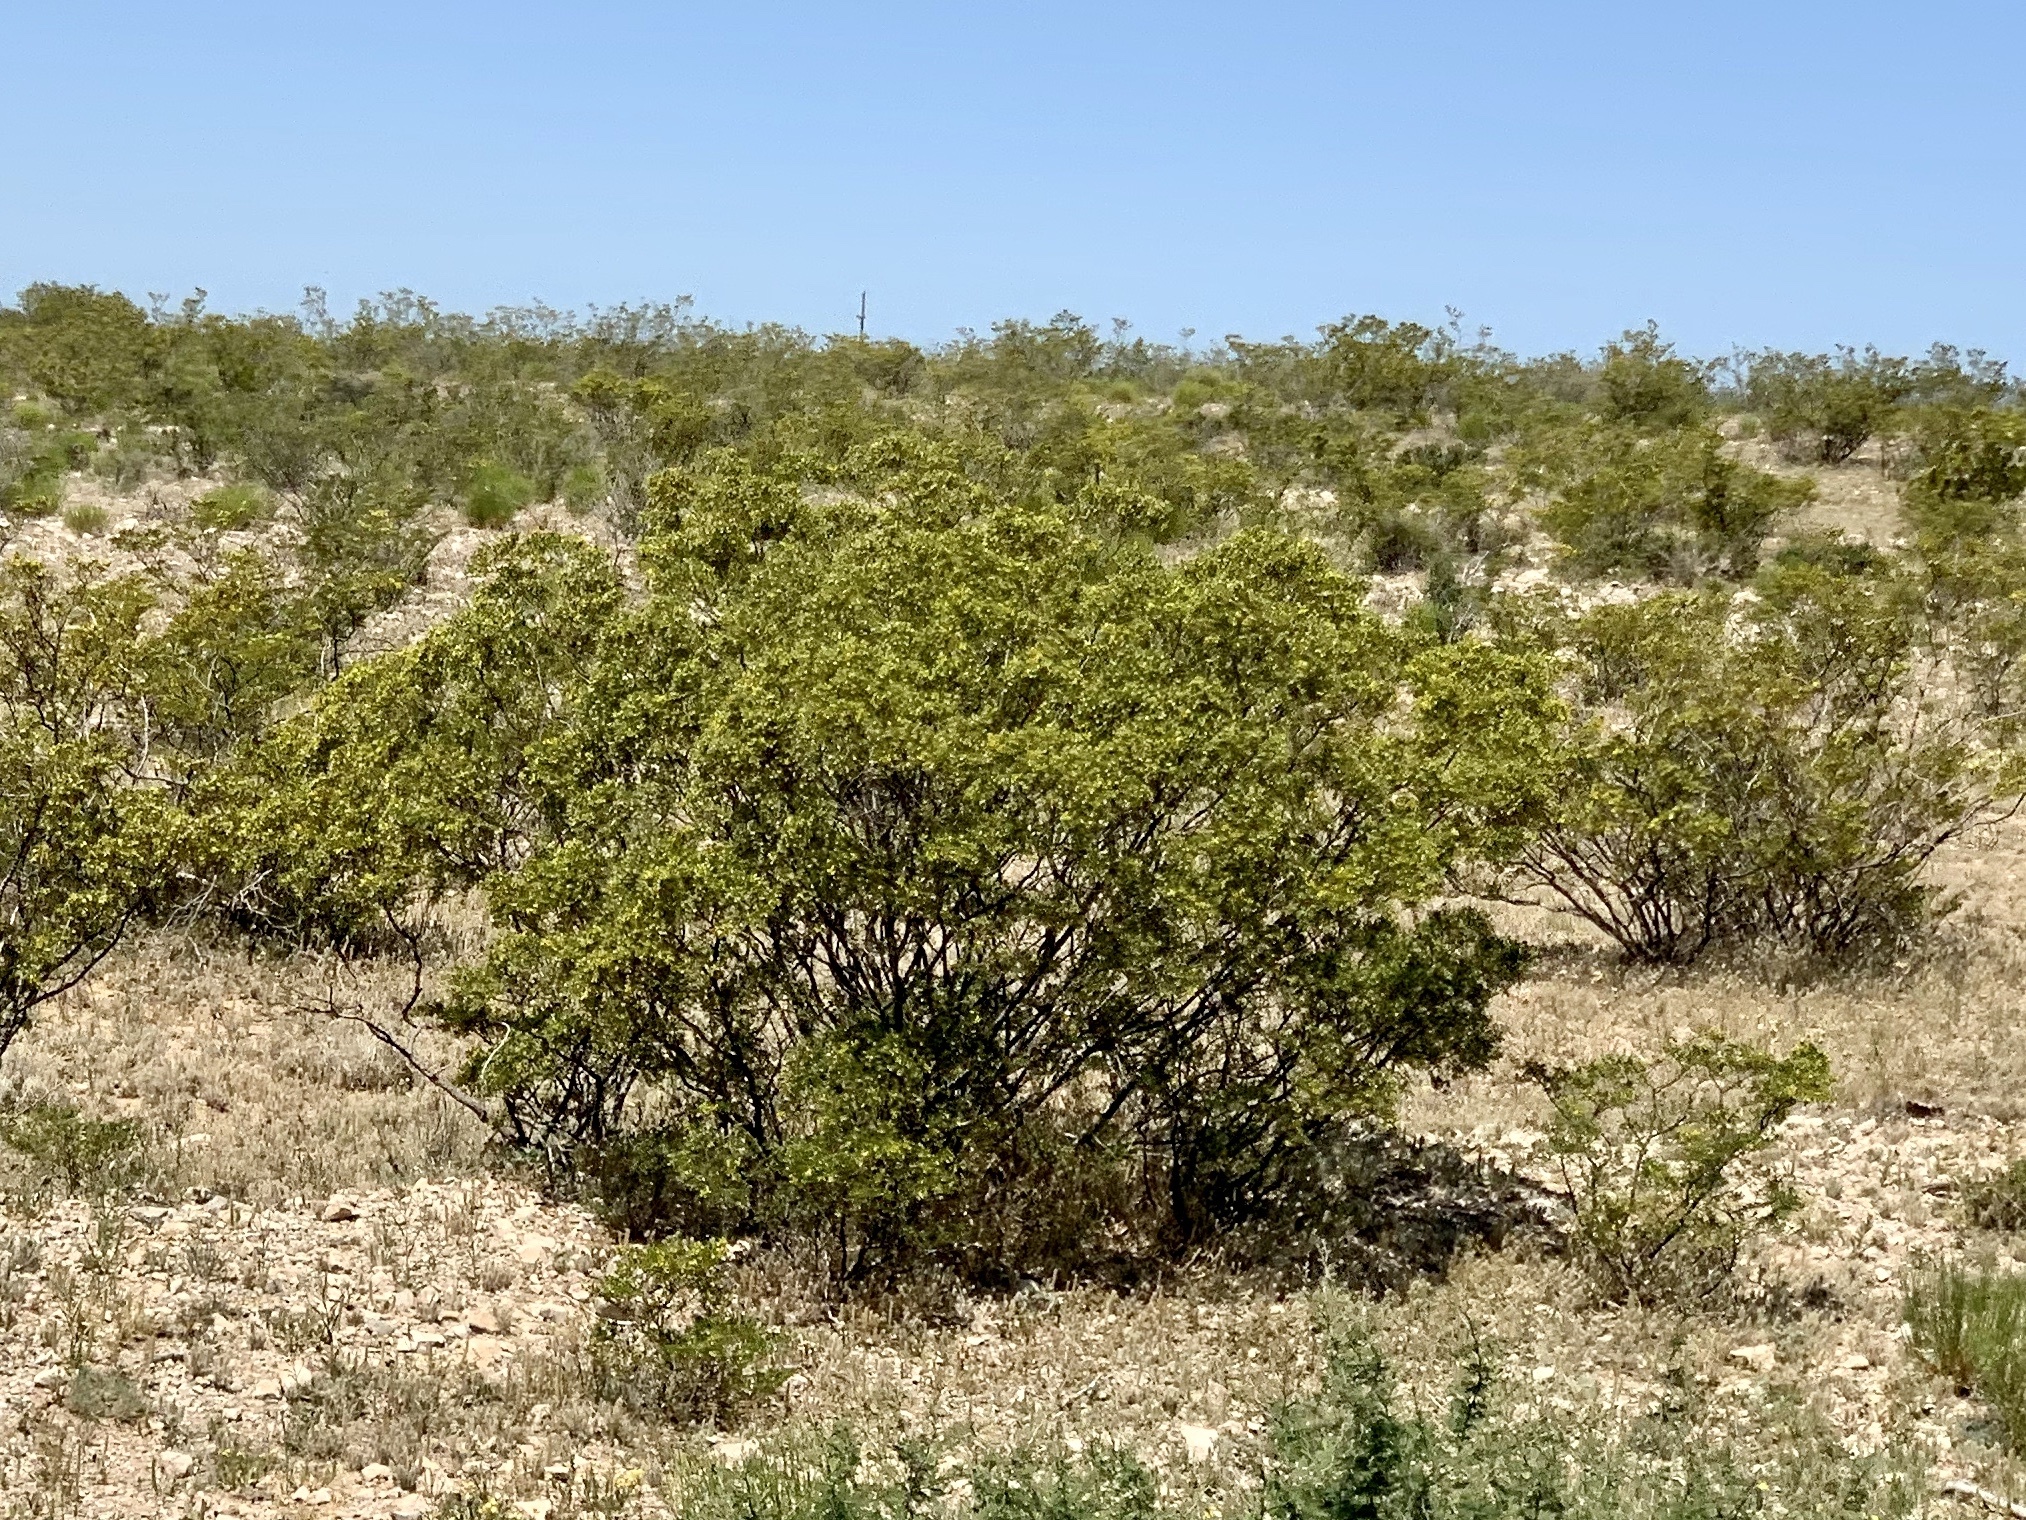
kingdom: Plantae
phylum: Tracheophyta
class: Magnoliopsida
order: Zygophyllales
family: Zygophyllaceae
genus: Larrea
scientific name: Larrea tridentata
